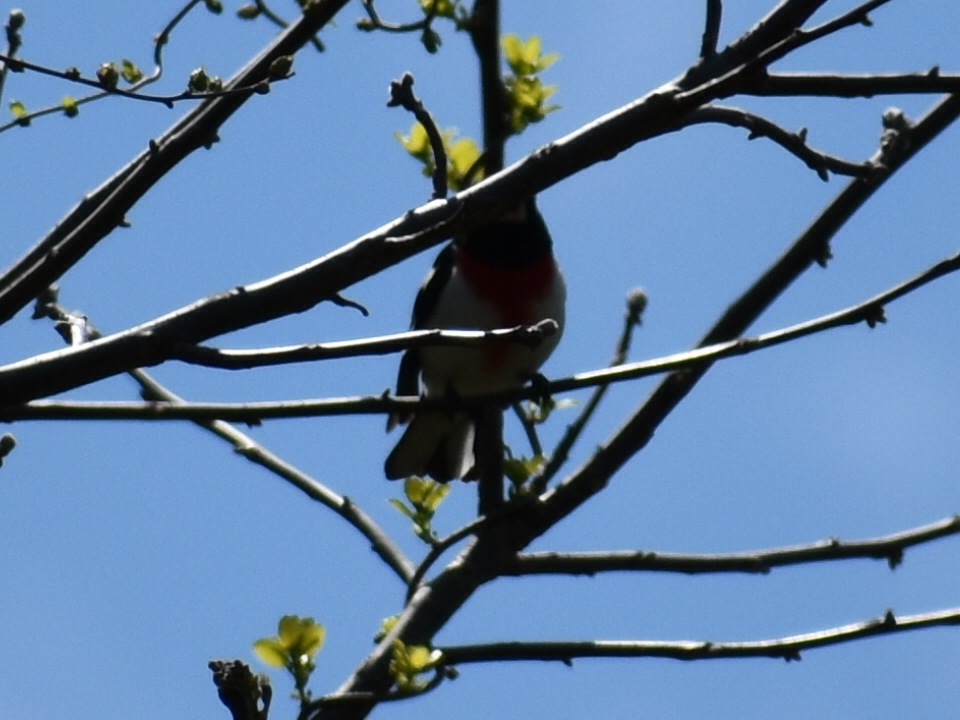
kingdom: Animalia
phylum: Chordata
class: Aves
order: Passeriformes
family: Cardinalidae
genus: Pheucticus
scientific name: Pheucticus ludovicianus
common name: Rose-breasted grosbeak
